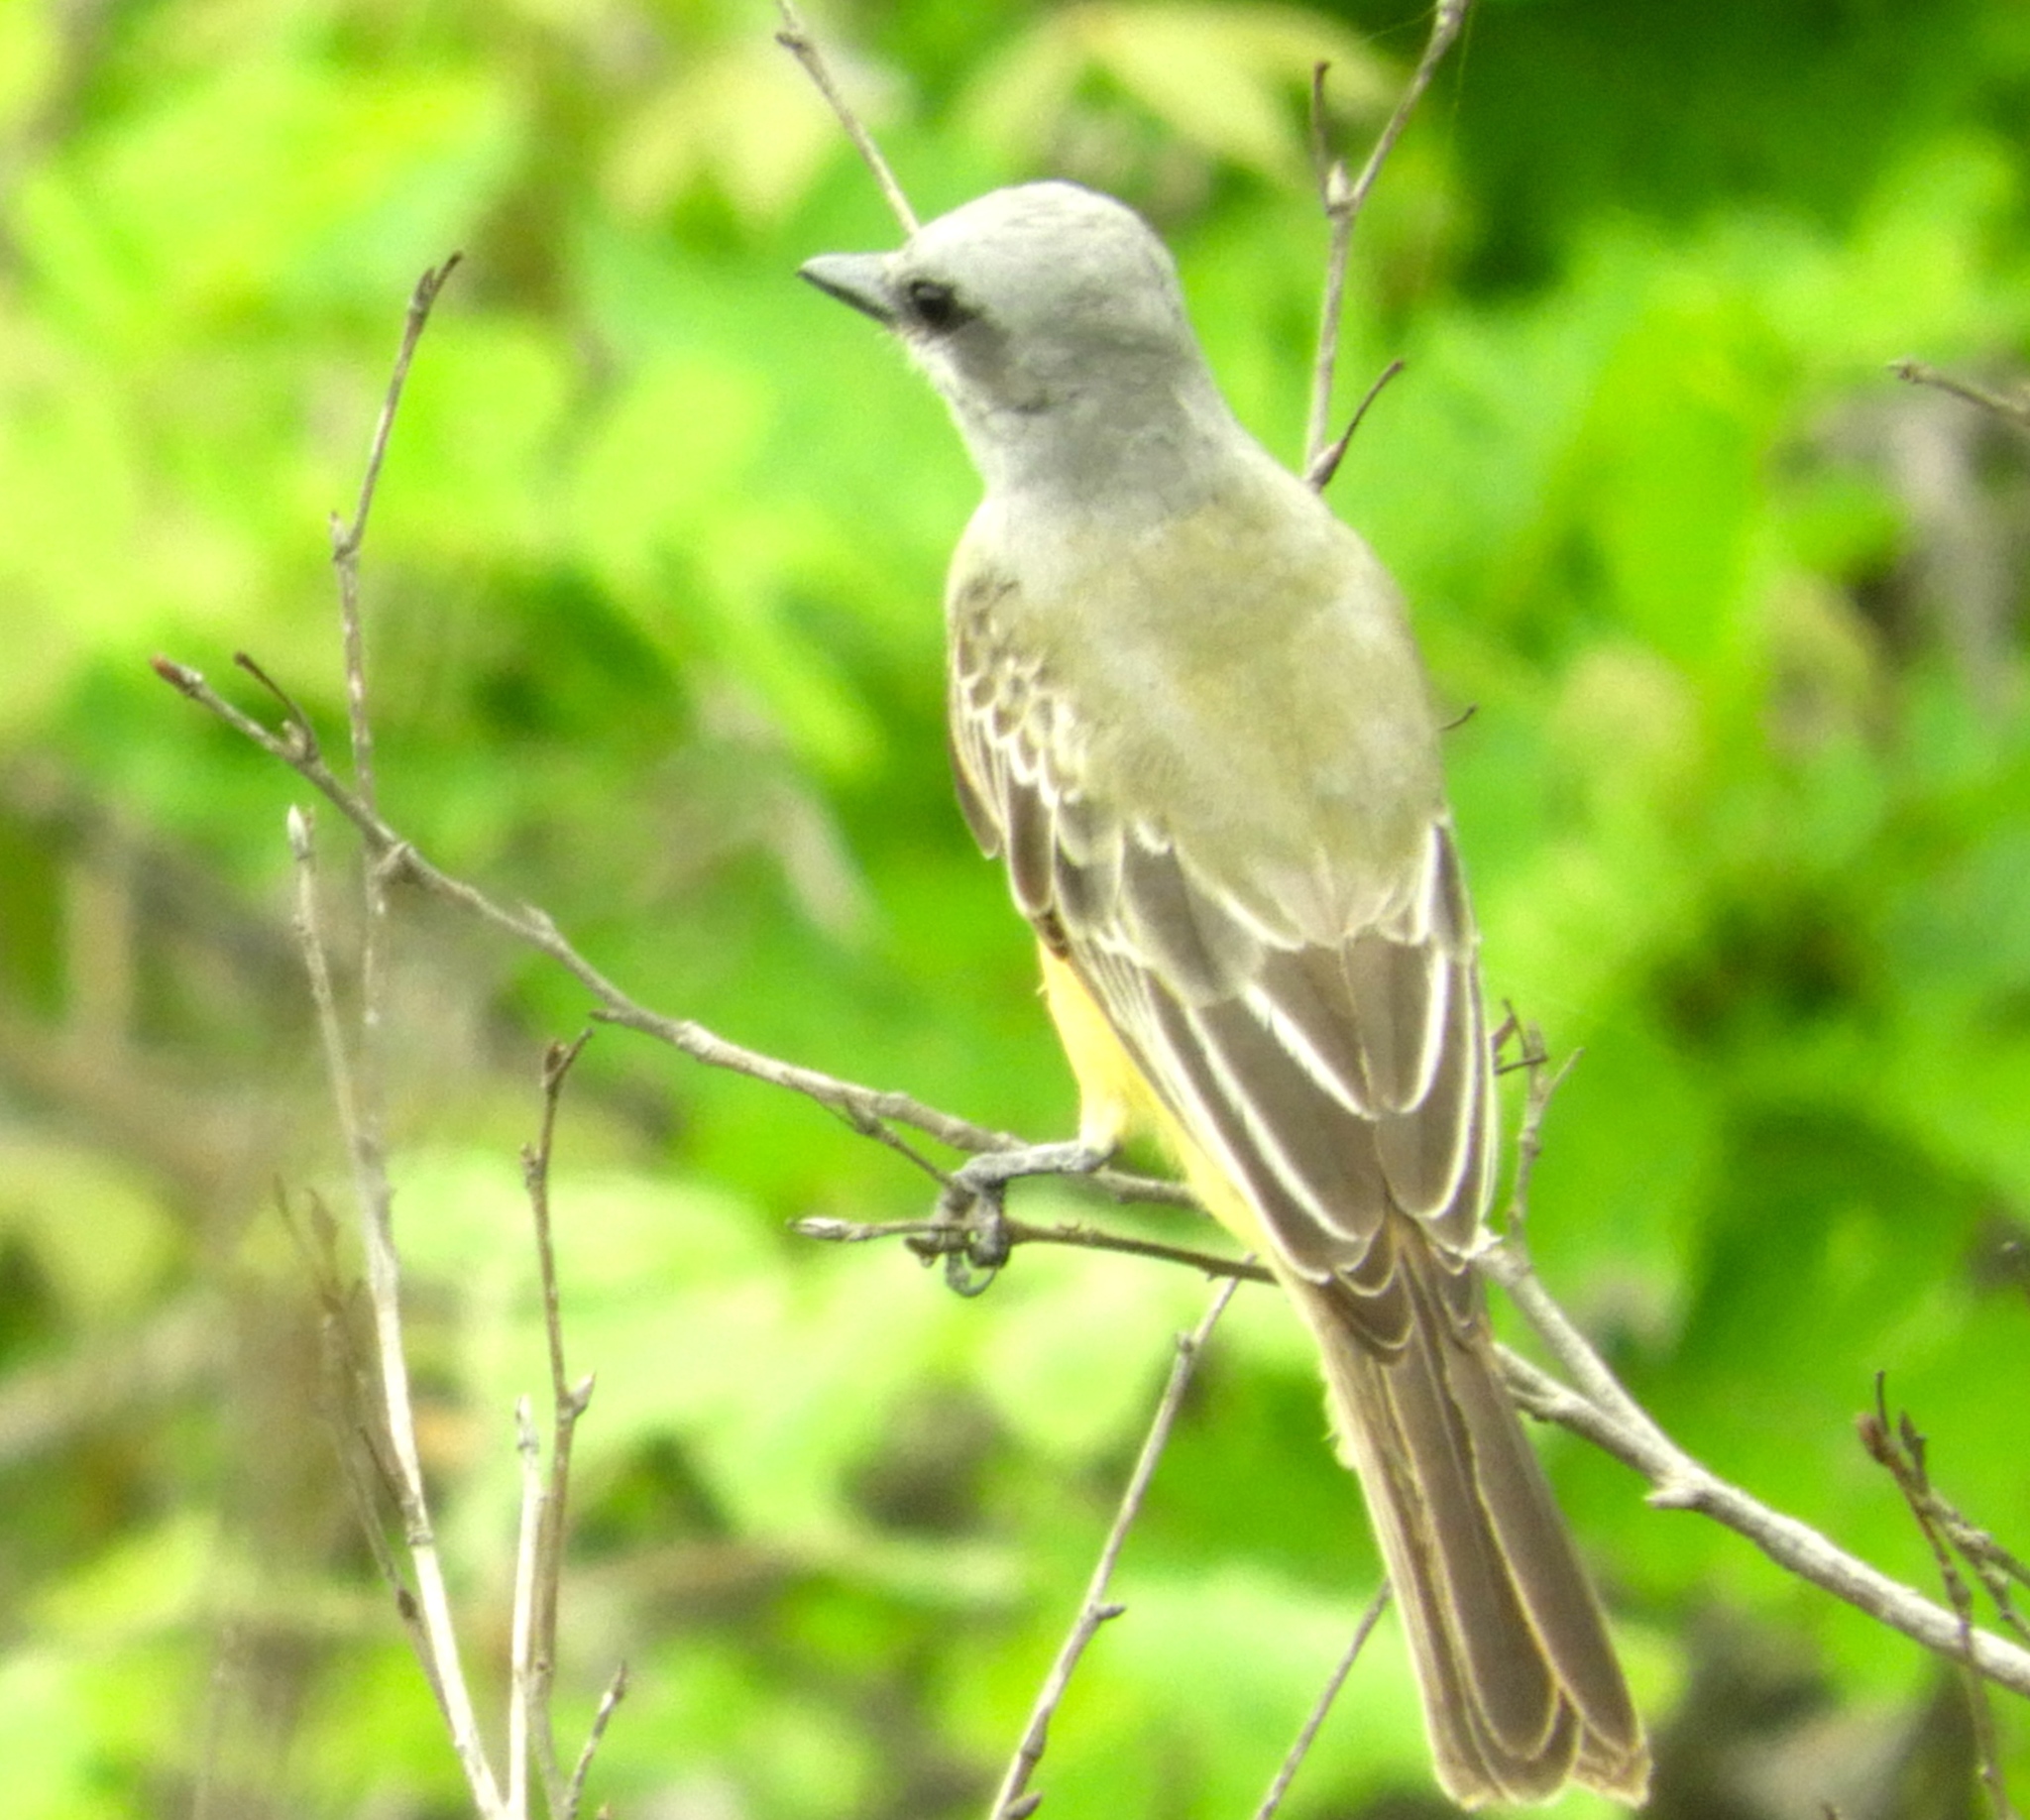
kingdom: Animalia
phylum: Chordata
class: Aves
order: Passeriformes
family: Tyrannidae
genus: Tyrannus
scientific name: Tyrannus melancholicus
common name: Tropical kingbird
